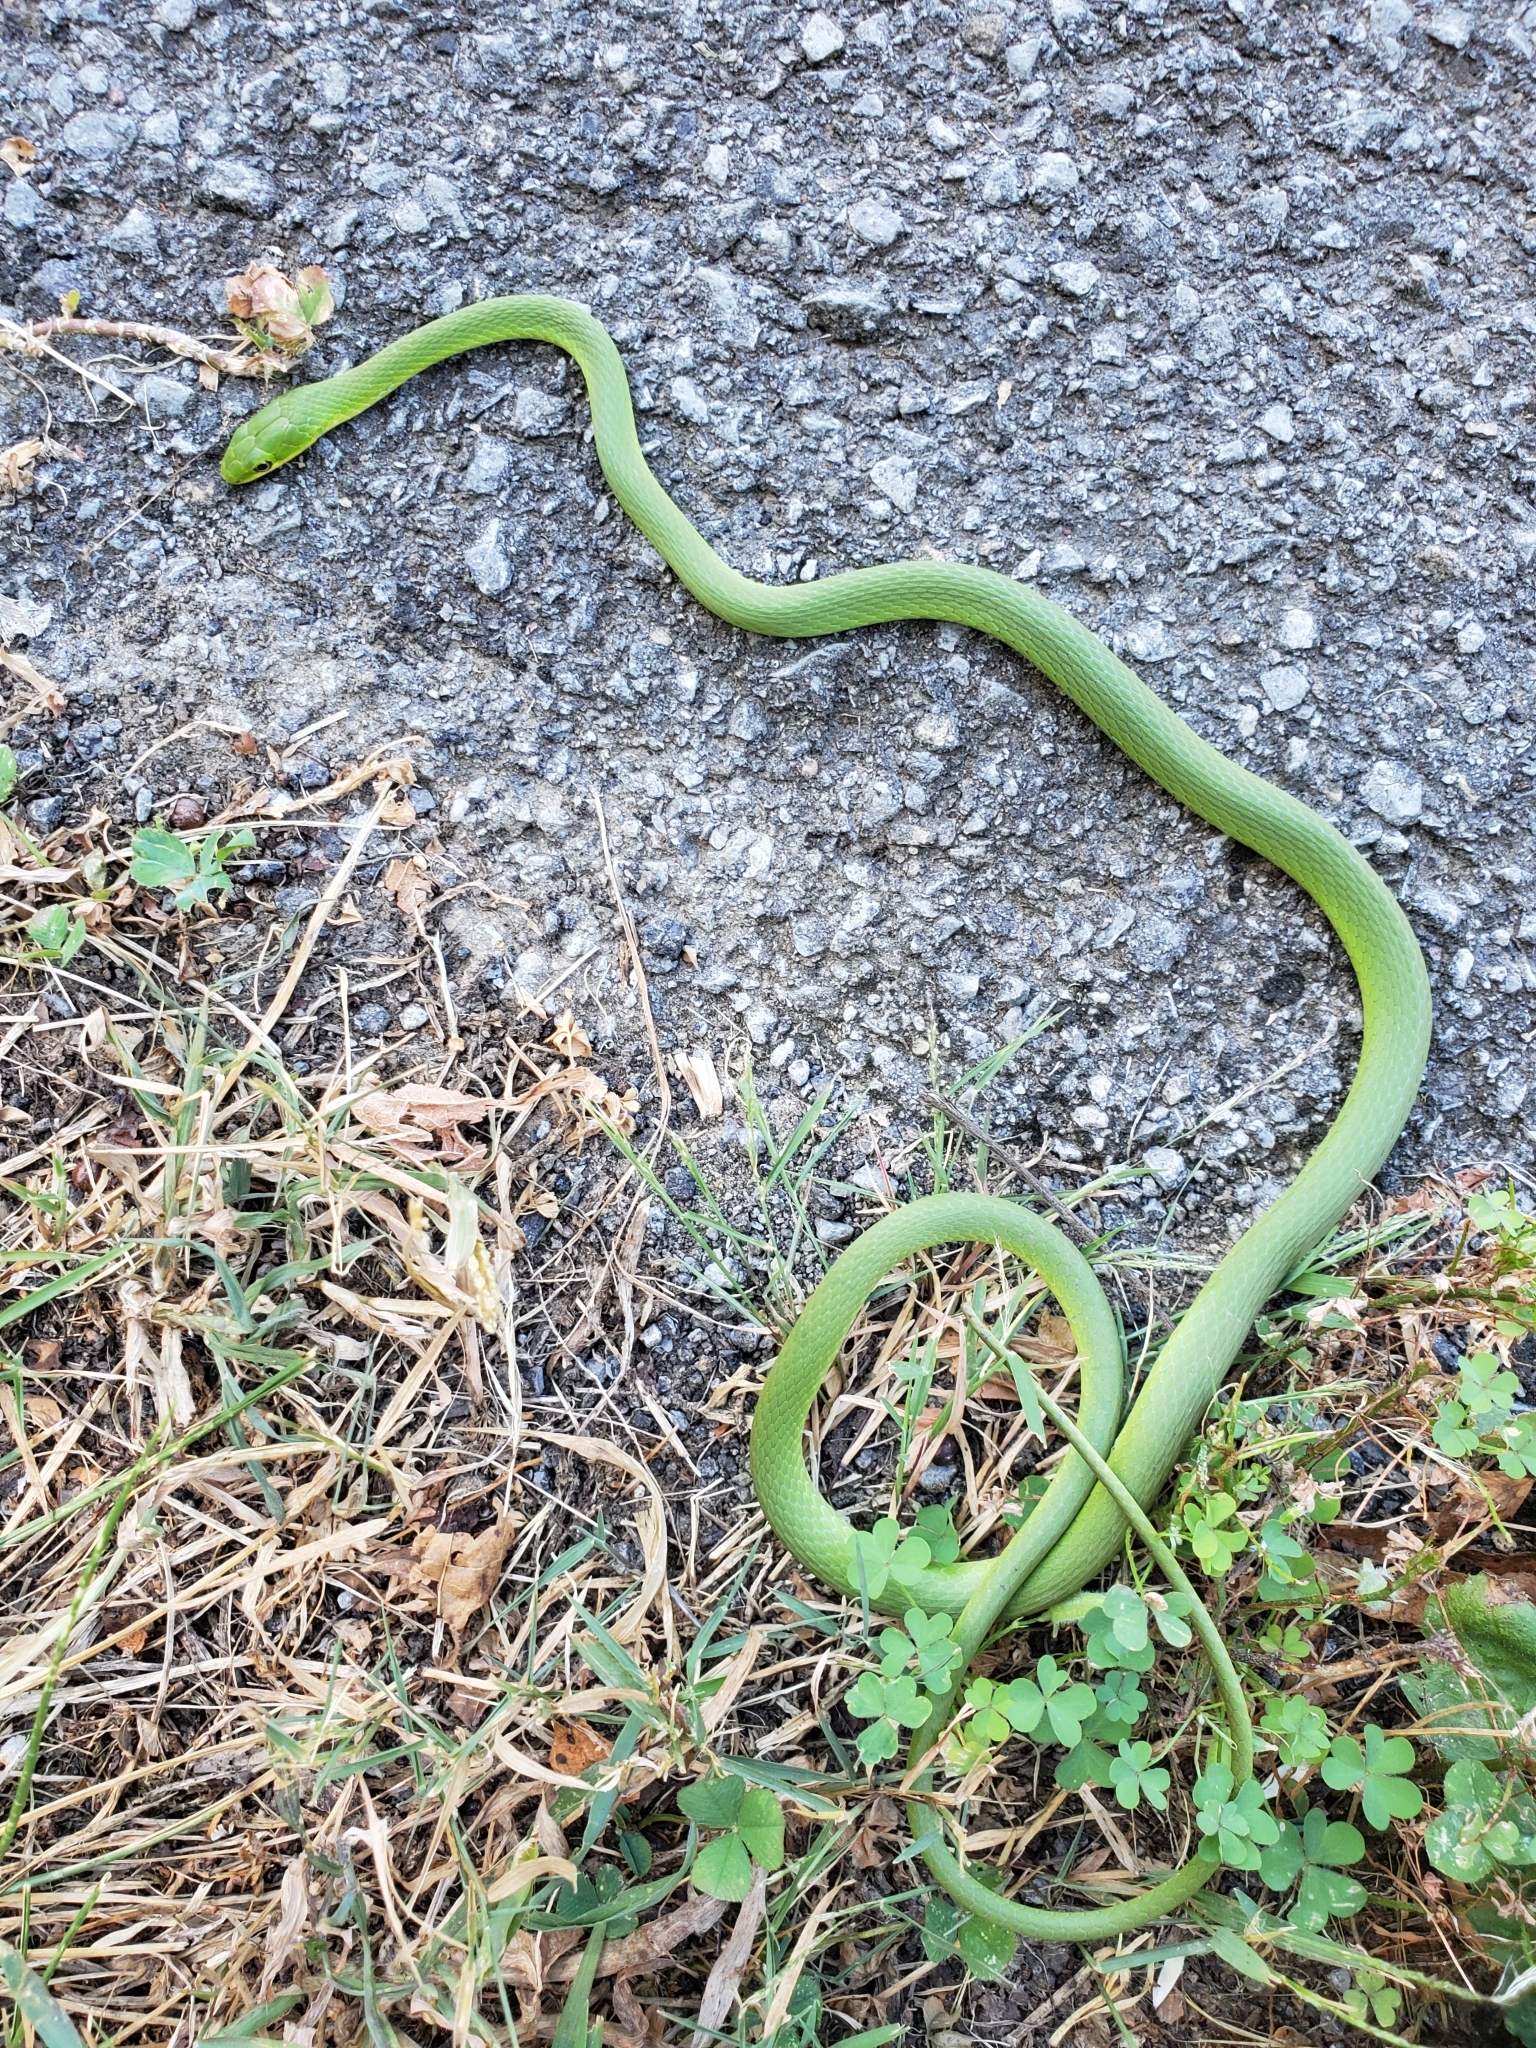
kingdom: Animalia
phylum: Chordata
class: Squamata
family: Colubridae
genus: Opheodrys
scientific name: Opheodrys aestivus
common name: Rough greensnake
